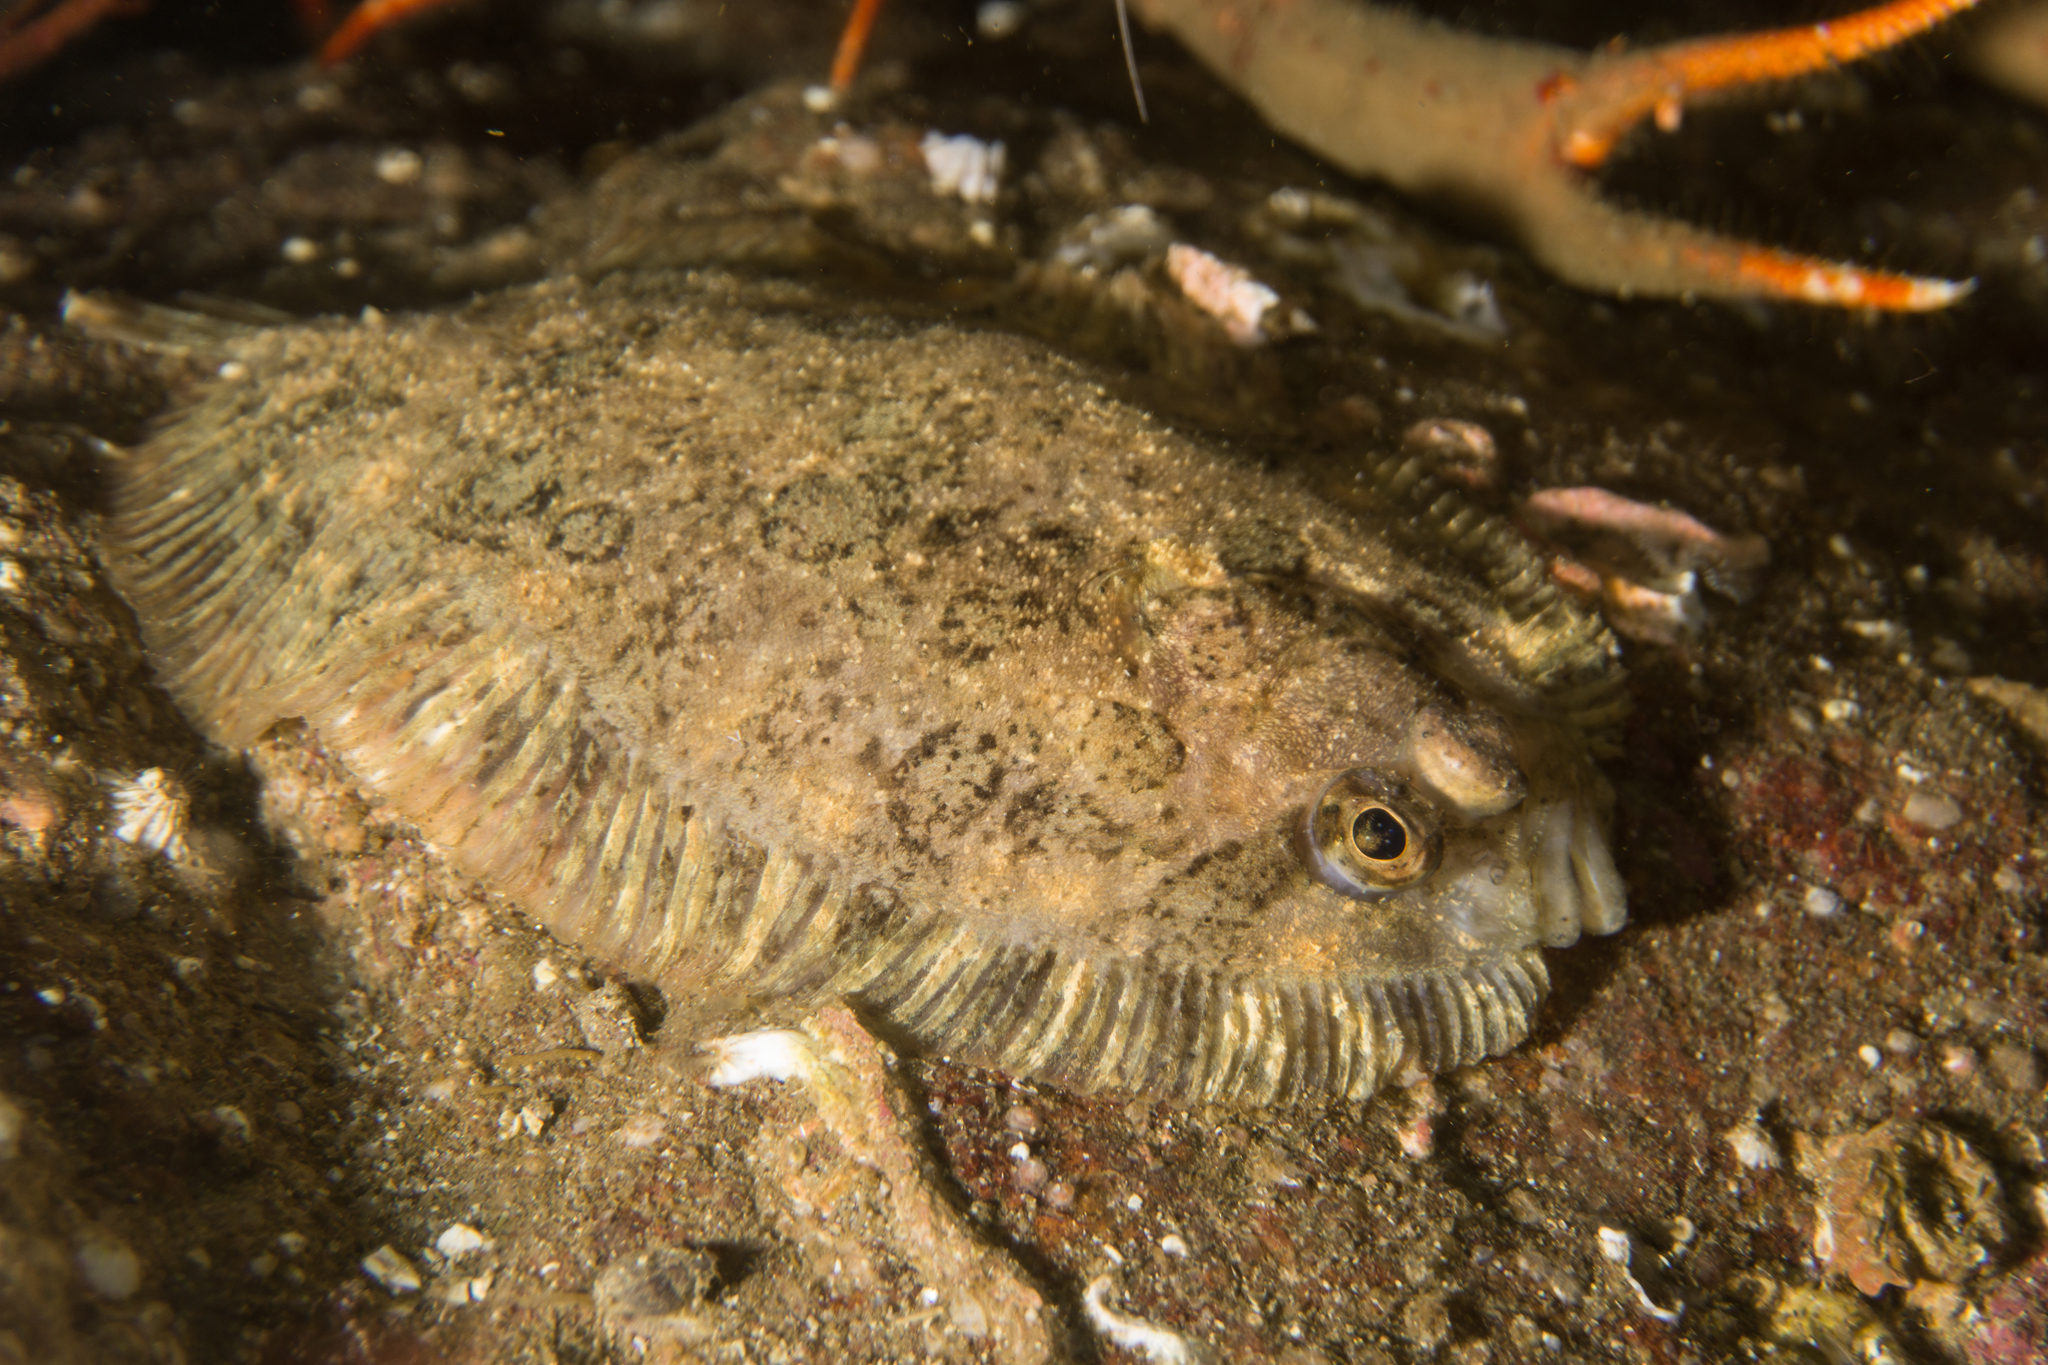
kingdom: Animalia
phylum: Chordata
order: Pleuronectiformes
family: Scophthalmidae
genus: Zeugopterus
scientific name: Zeugopterus punctatus
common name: Topknot
